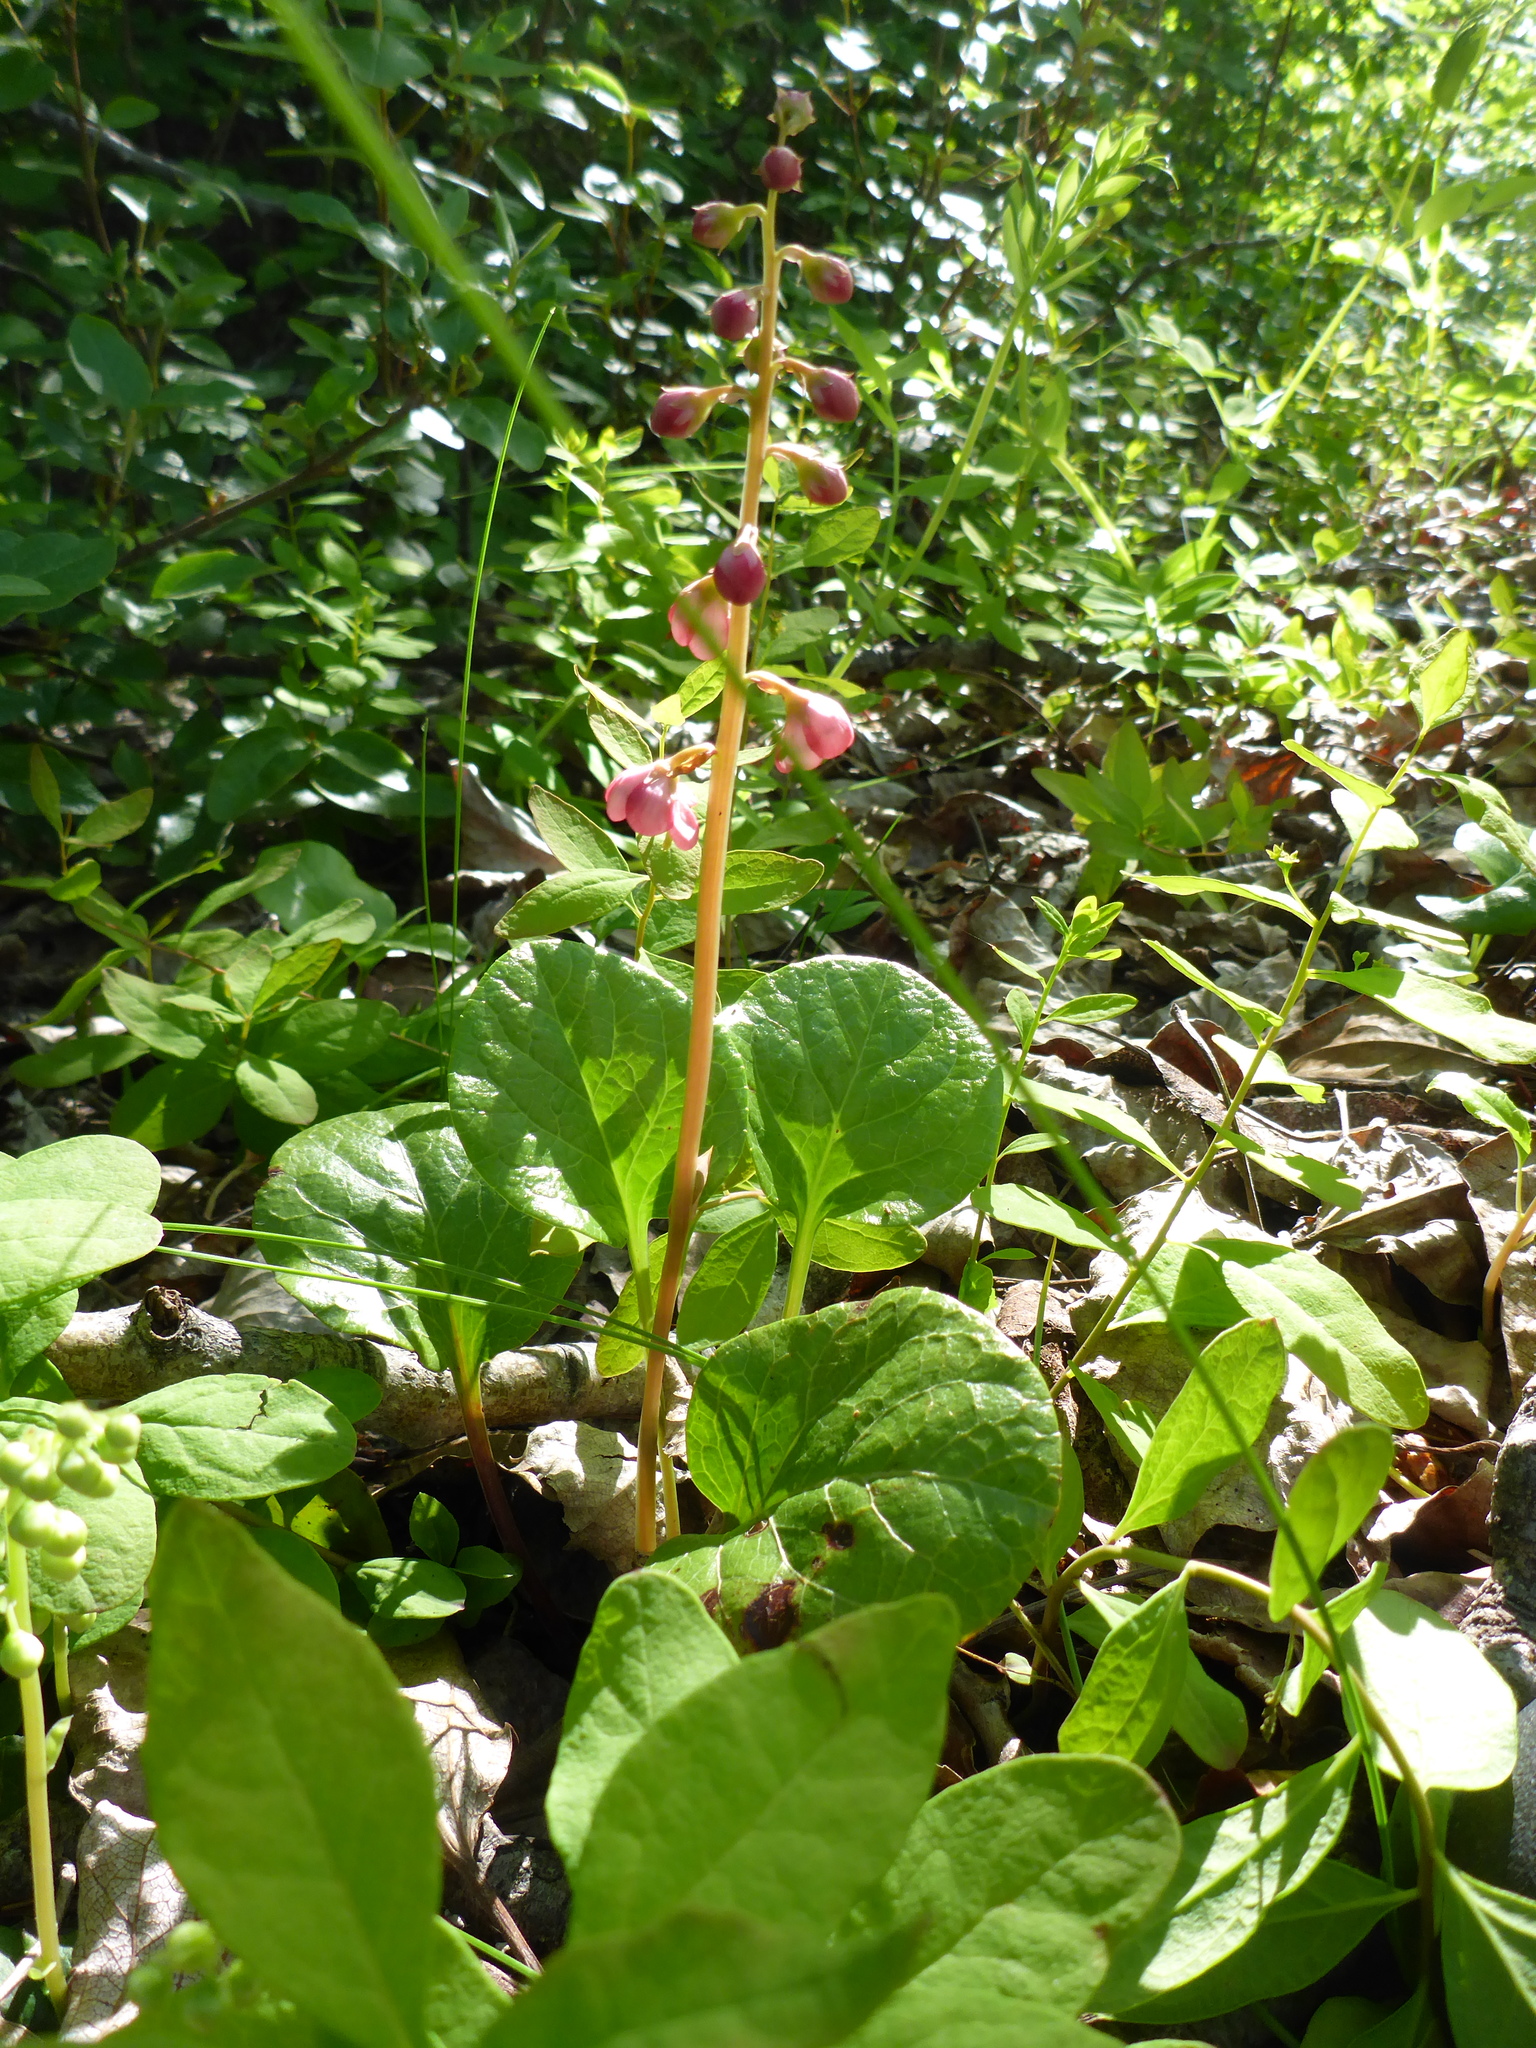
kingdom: Plantae
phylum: Tracheophyta
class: Magnoliopsida
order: Ericales
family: Ericaceae
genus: Pyrola
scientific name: Pyrola asarifolia
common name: Bog wintergreen
